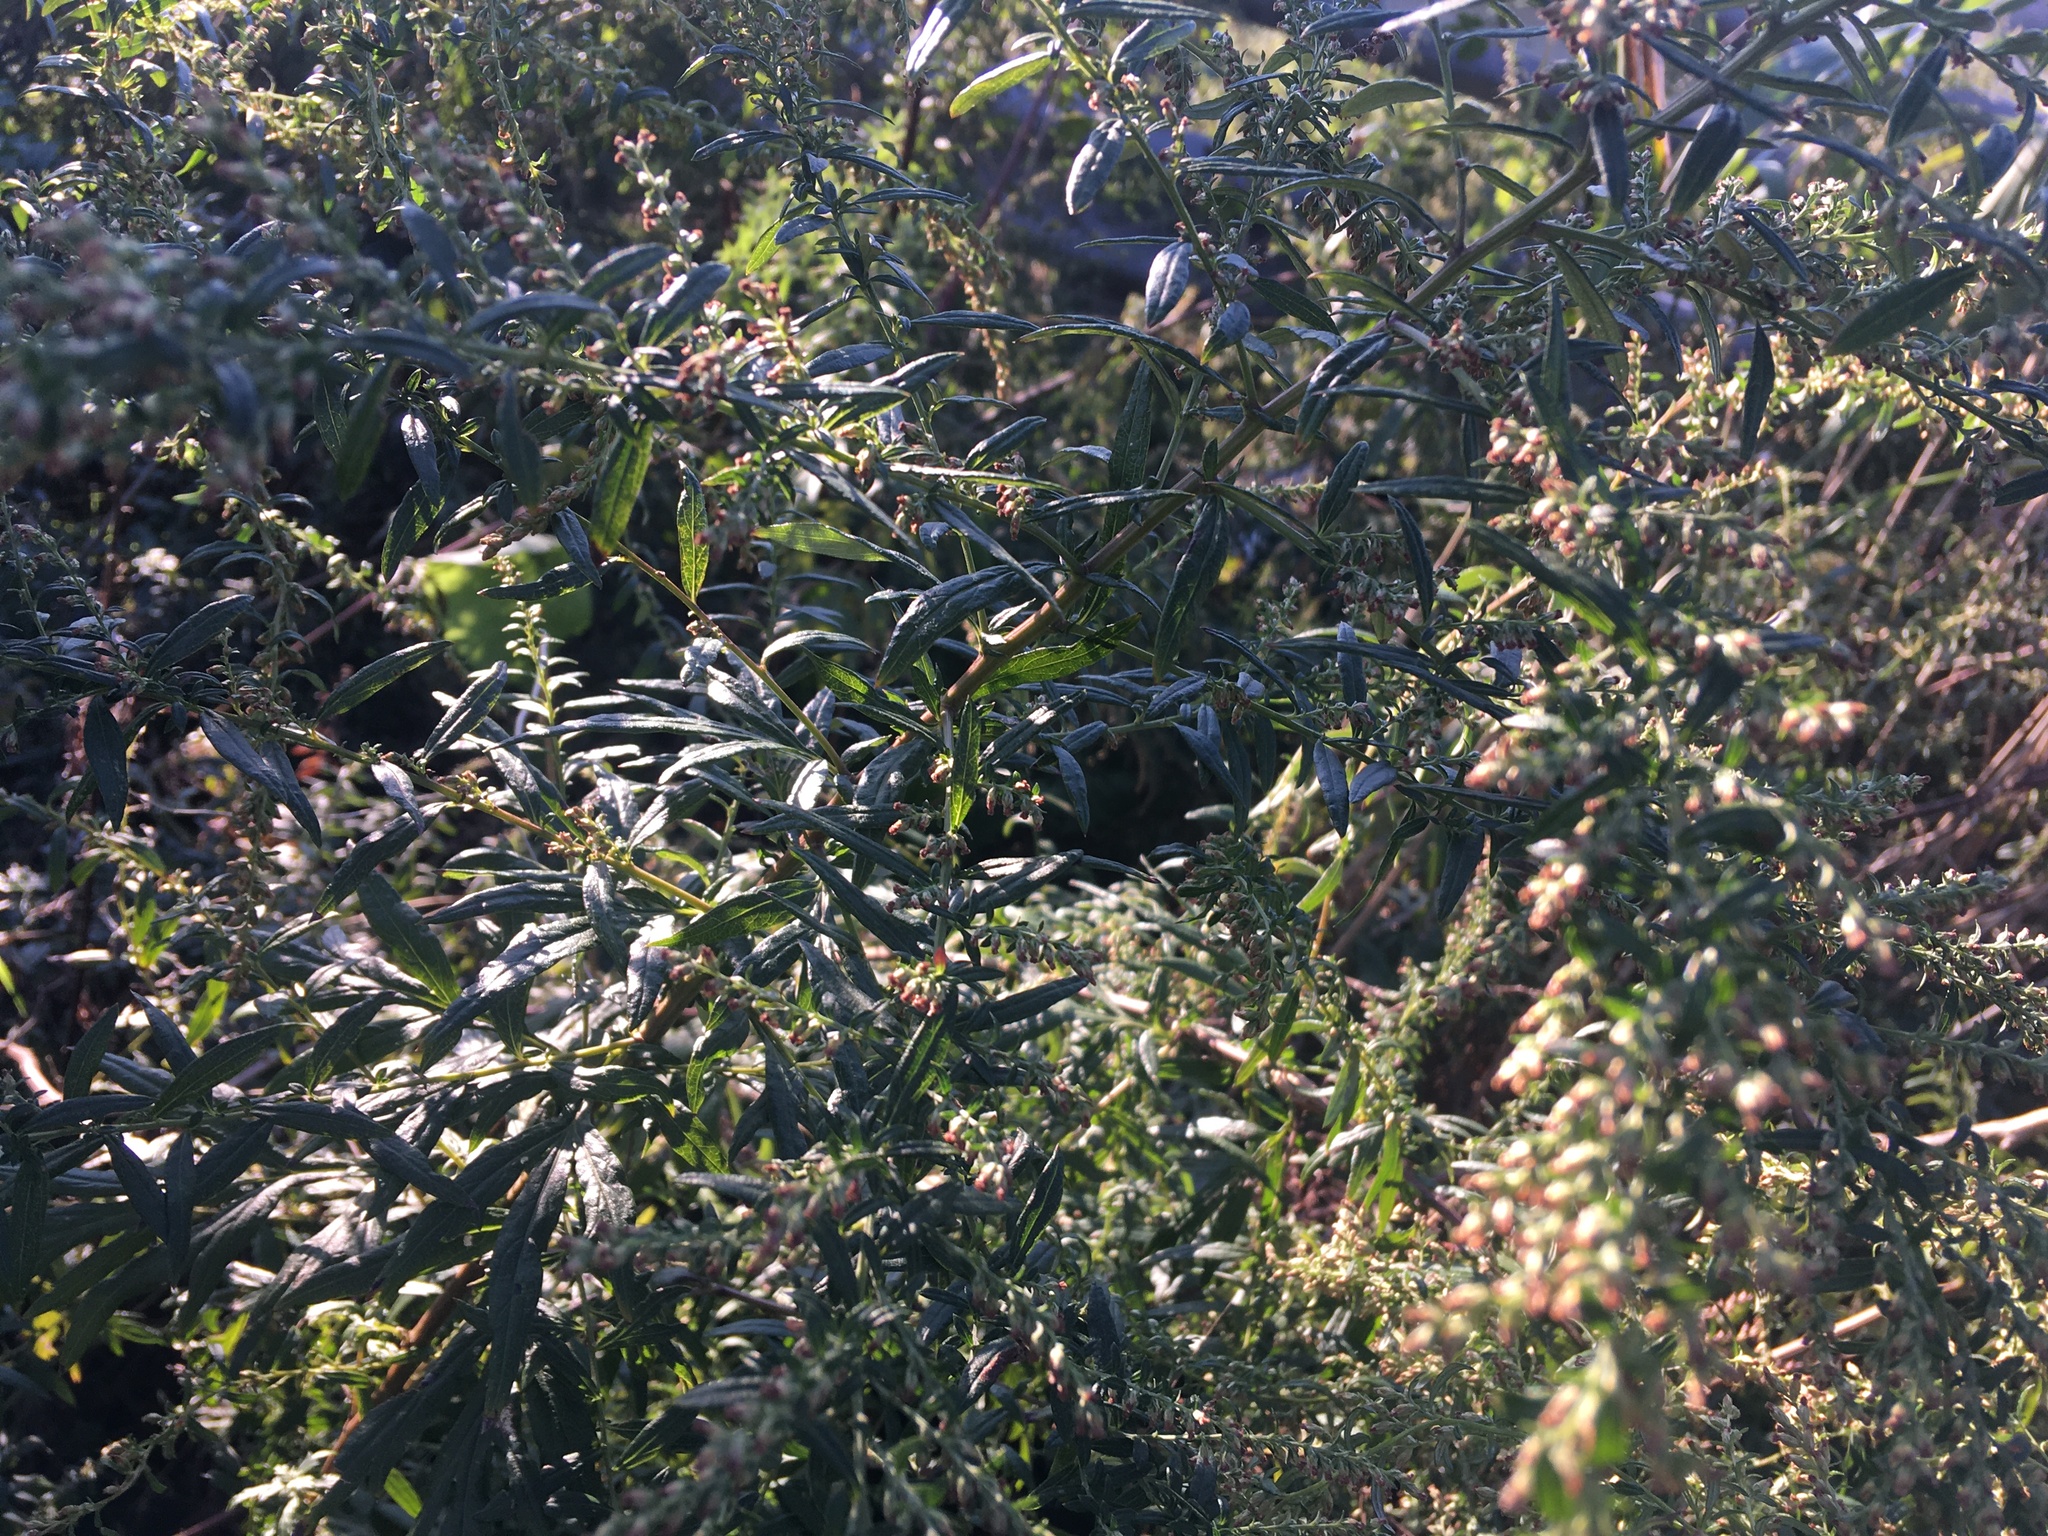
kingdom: Plantae
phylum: Tracheophyta
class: Magnoliopsida
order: Asterales
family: Asteraceae
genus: Artemisia
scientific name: Artemisia vulgaris
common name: Mugwort
